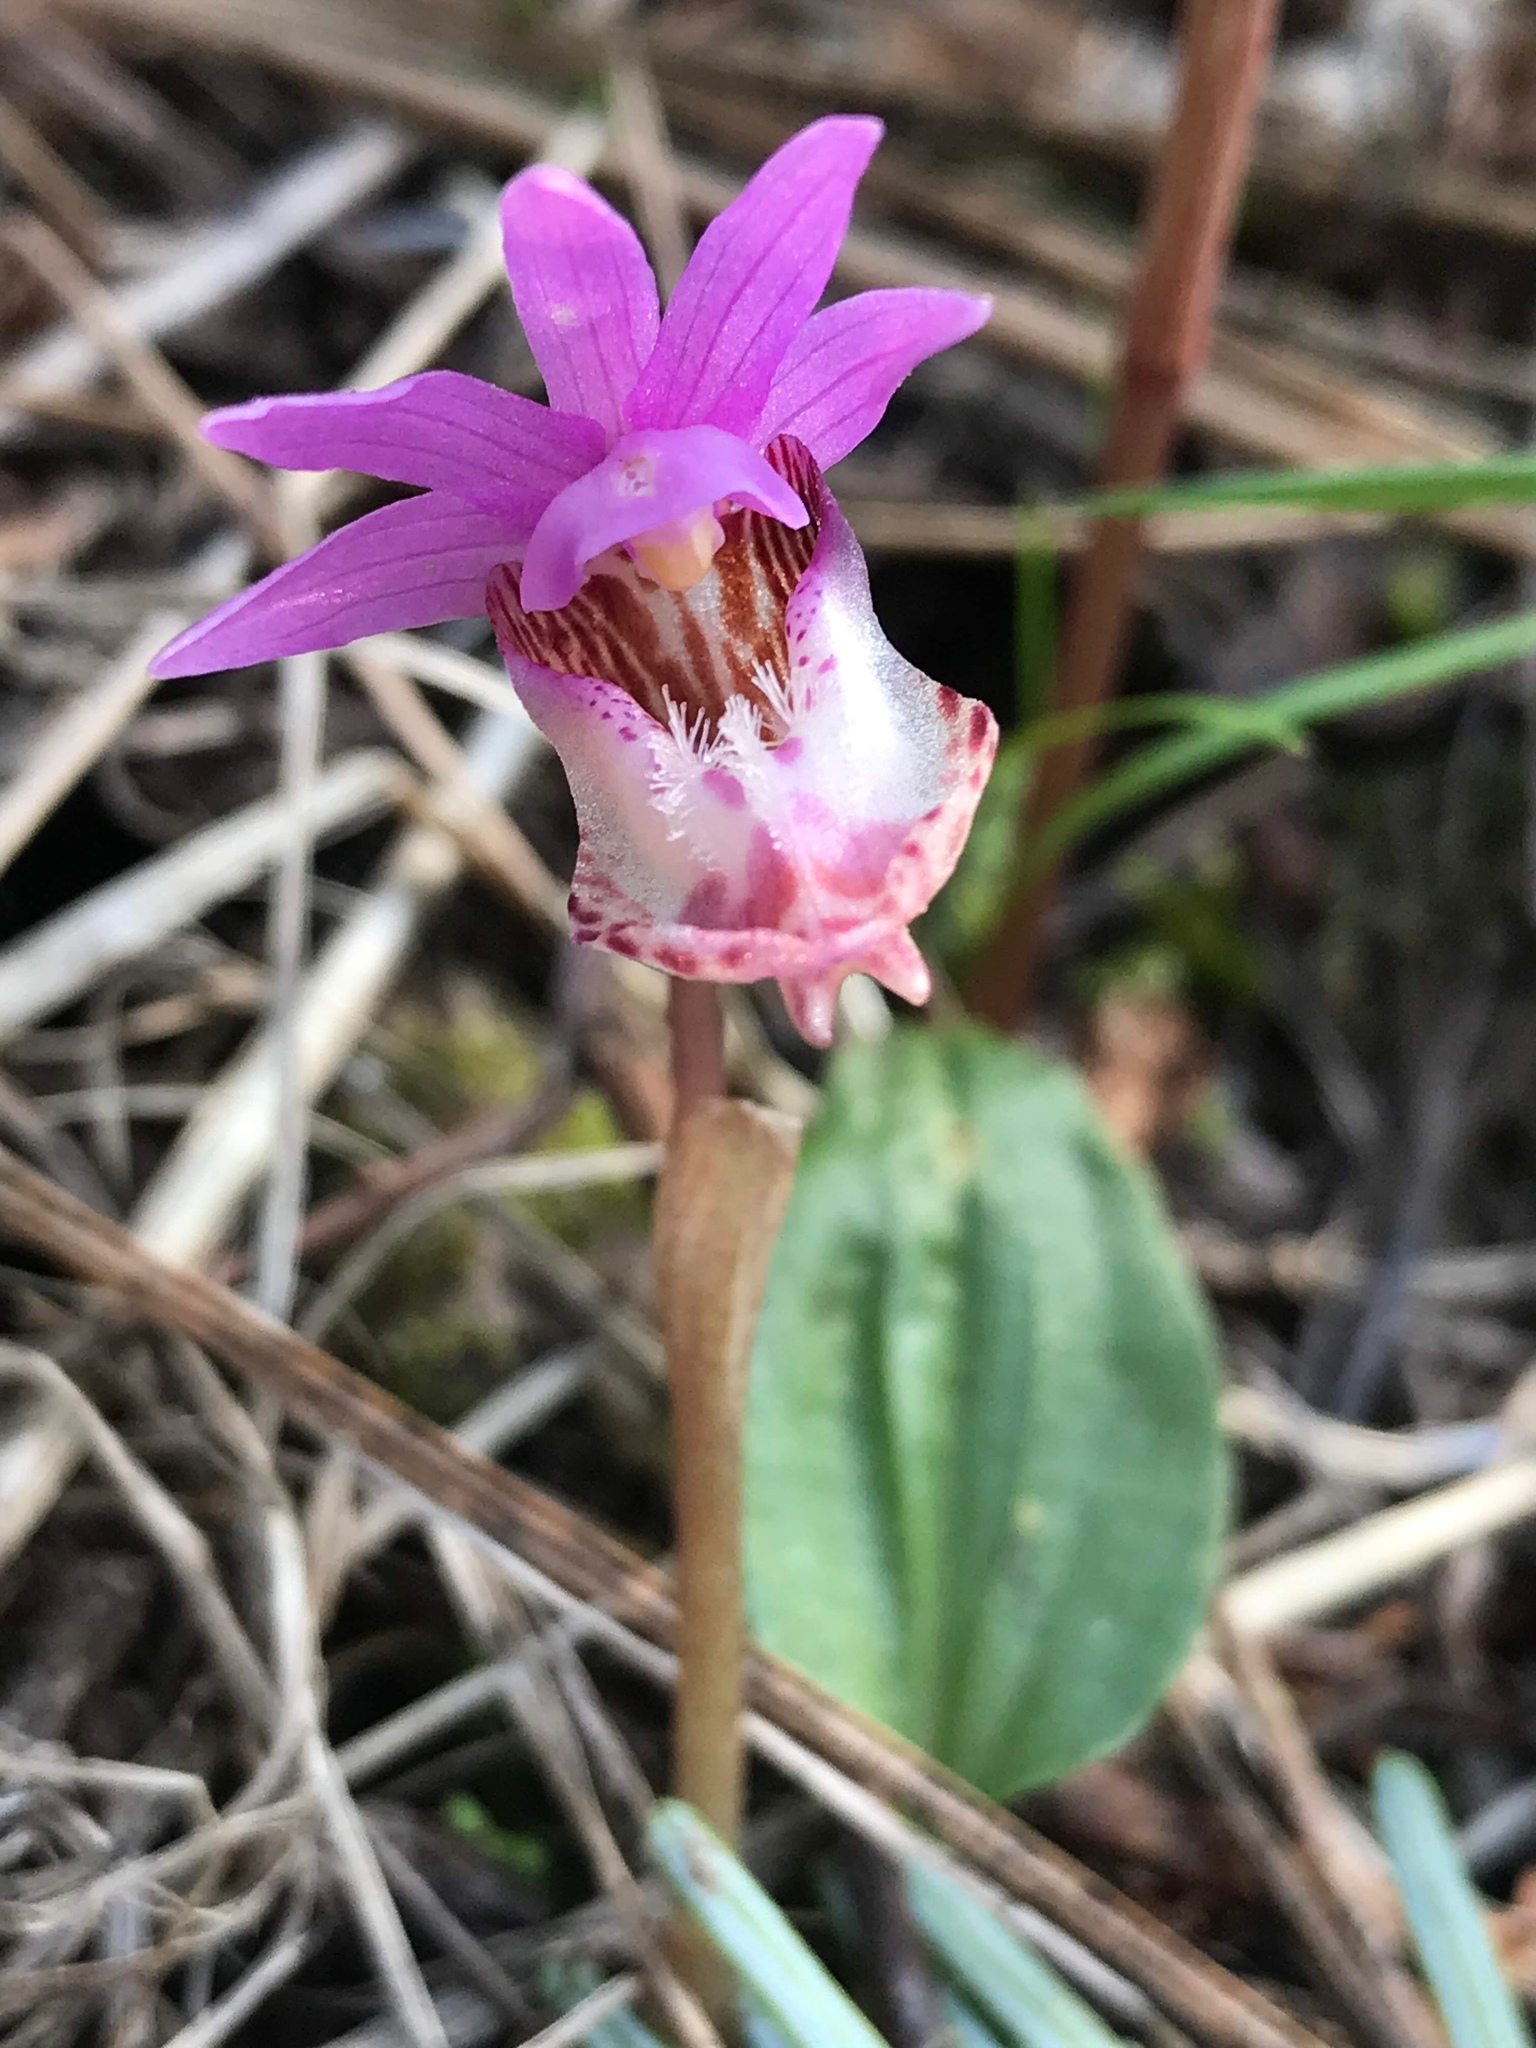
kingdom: Plantae
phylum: Tracheophyta
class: Liliopsida
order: Asparagales
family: Orchidaceae
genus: Calypso
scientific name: Calypso bulbosa
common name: Calypso
